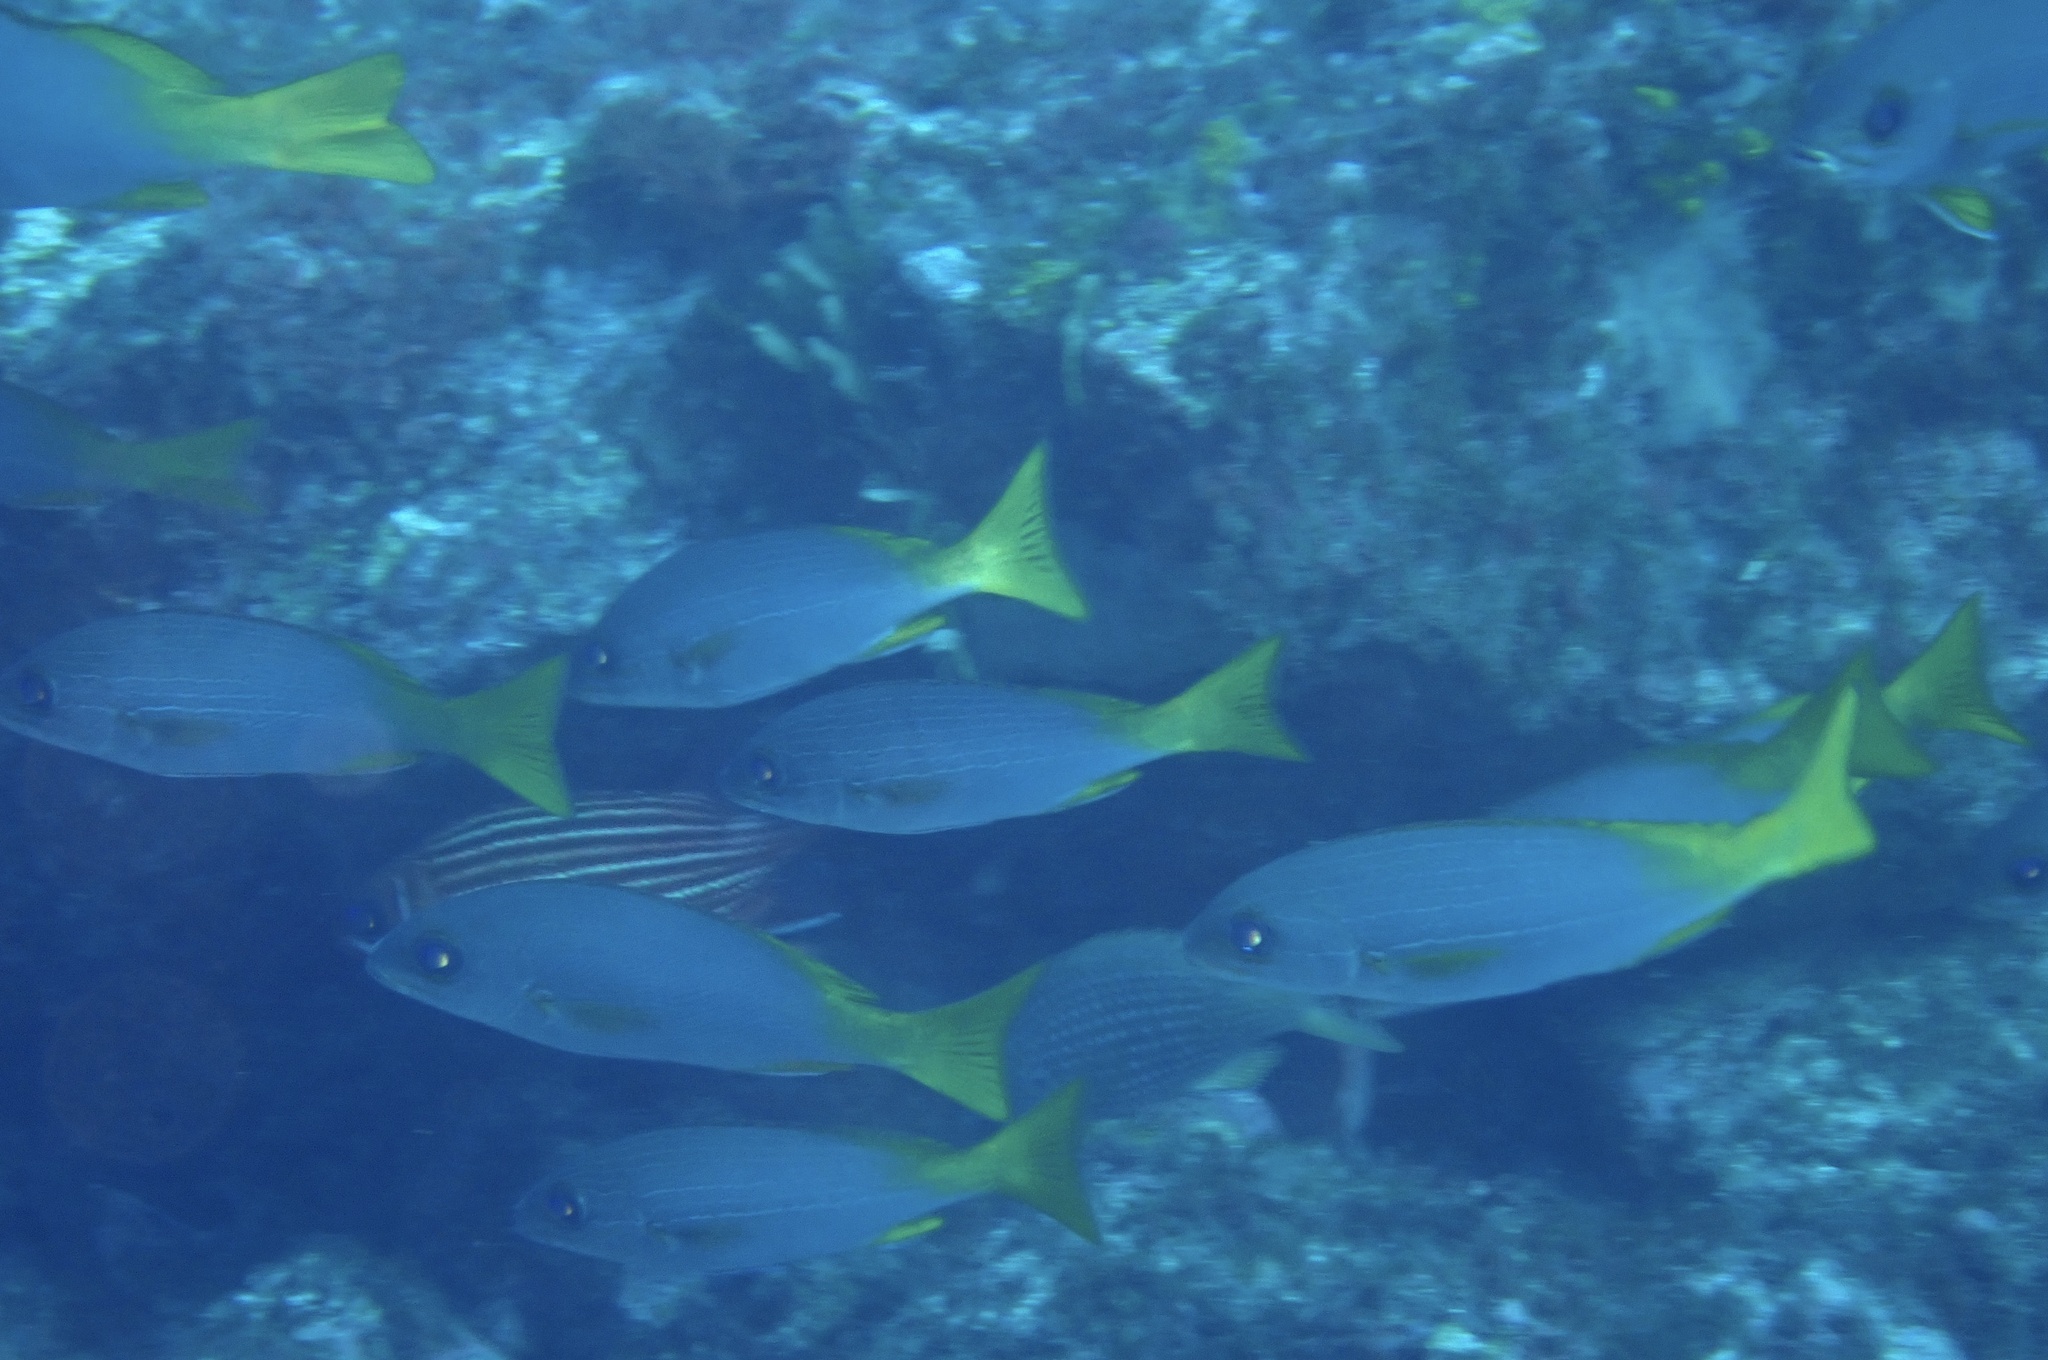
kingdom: Animalia
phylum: Chordata
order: Perciformes
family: Haemulidae
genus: Parapristipoma
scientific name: Parapristipoma humile
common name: Guinean grunt
